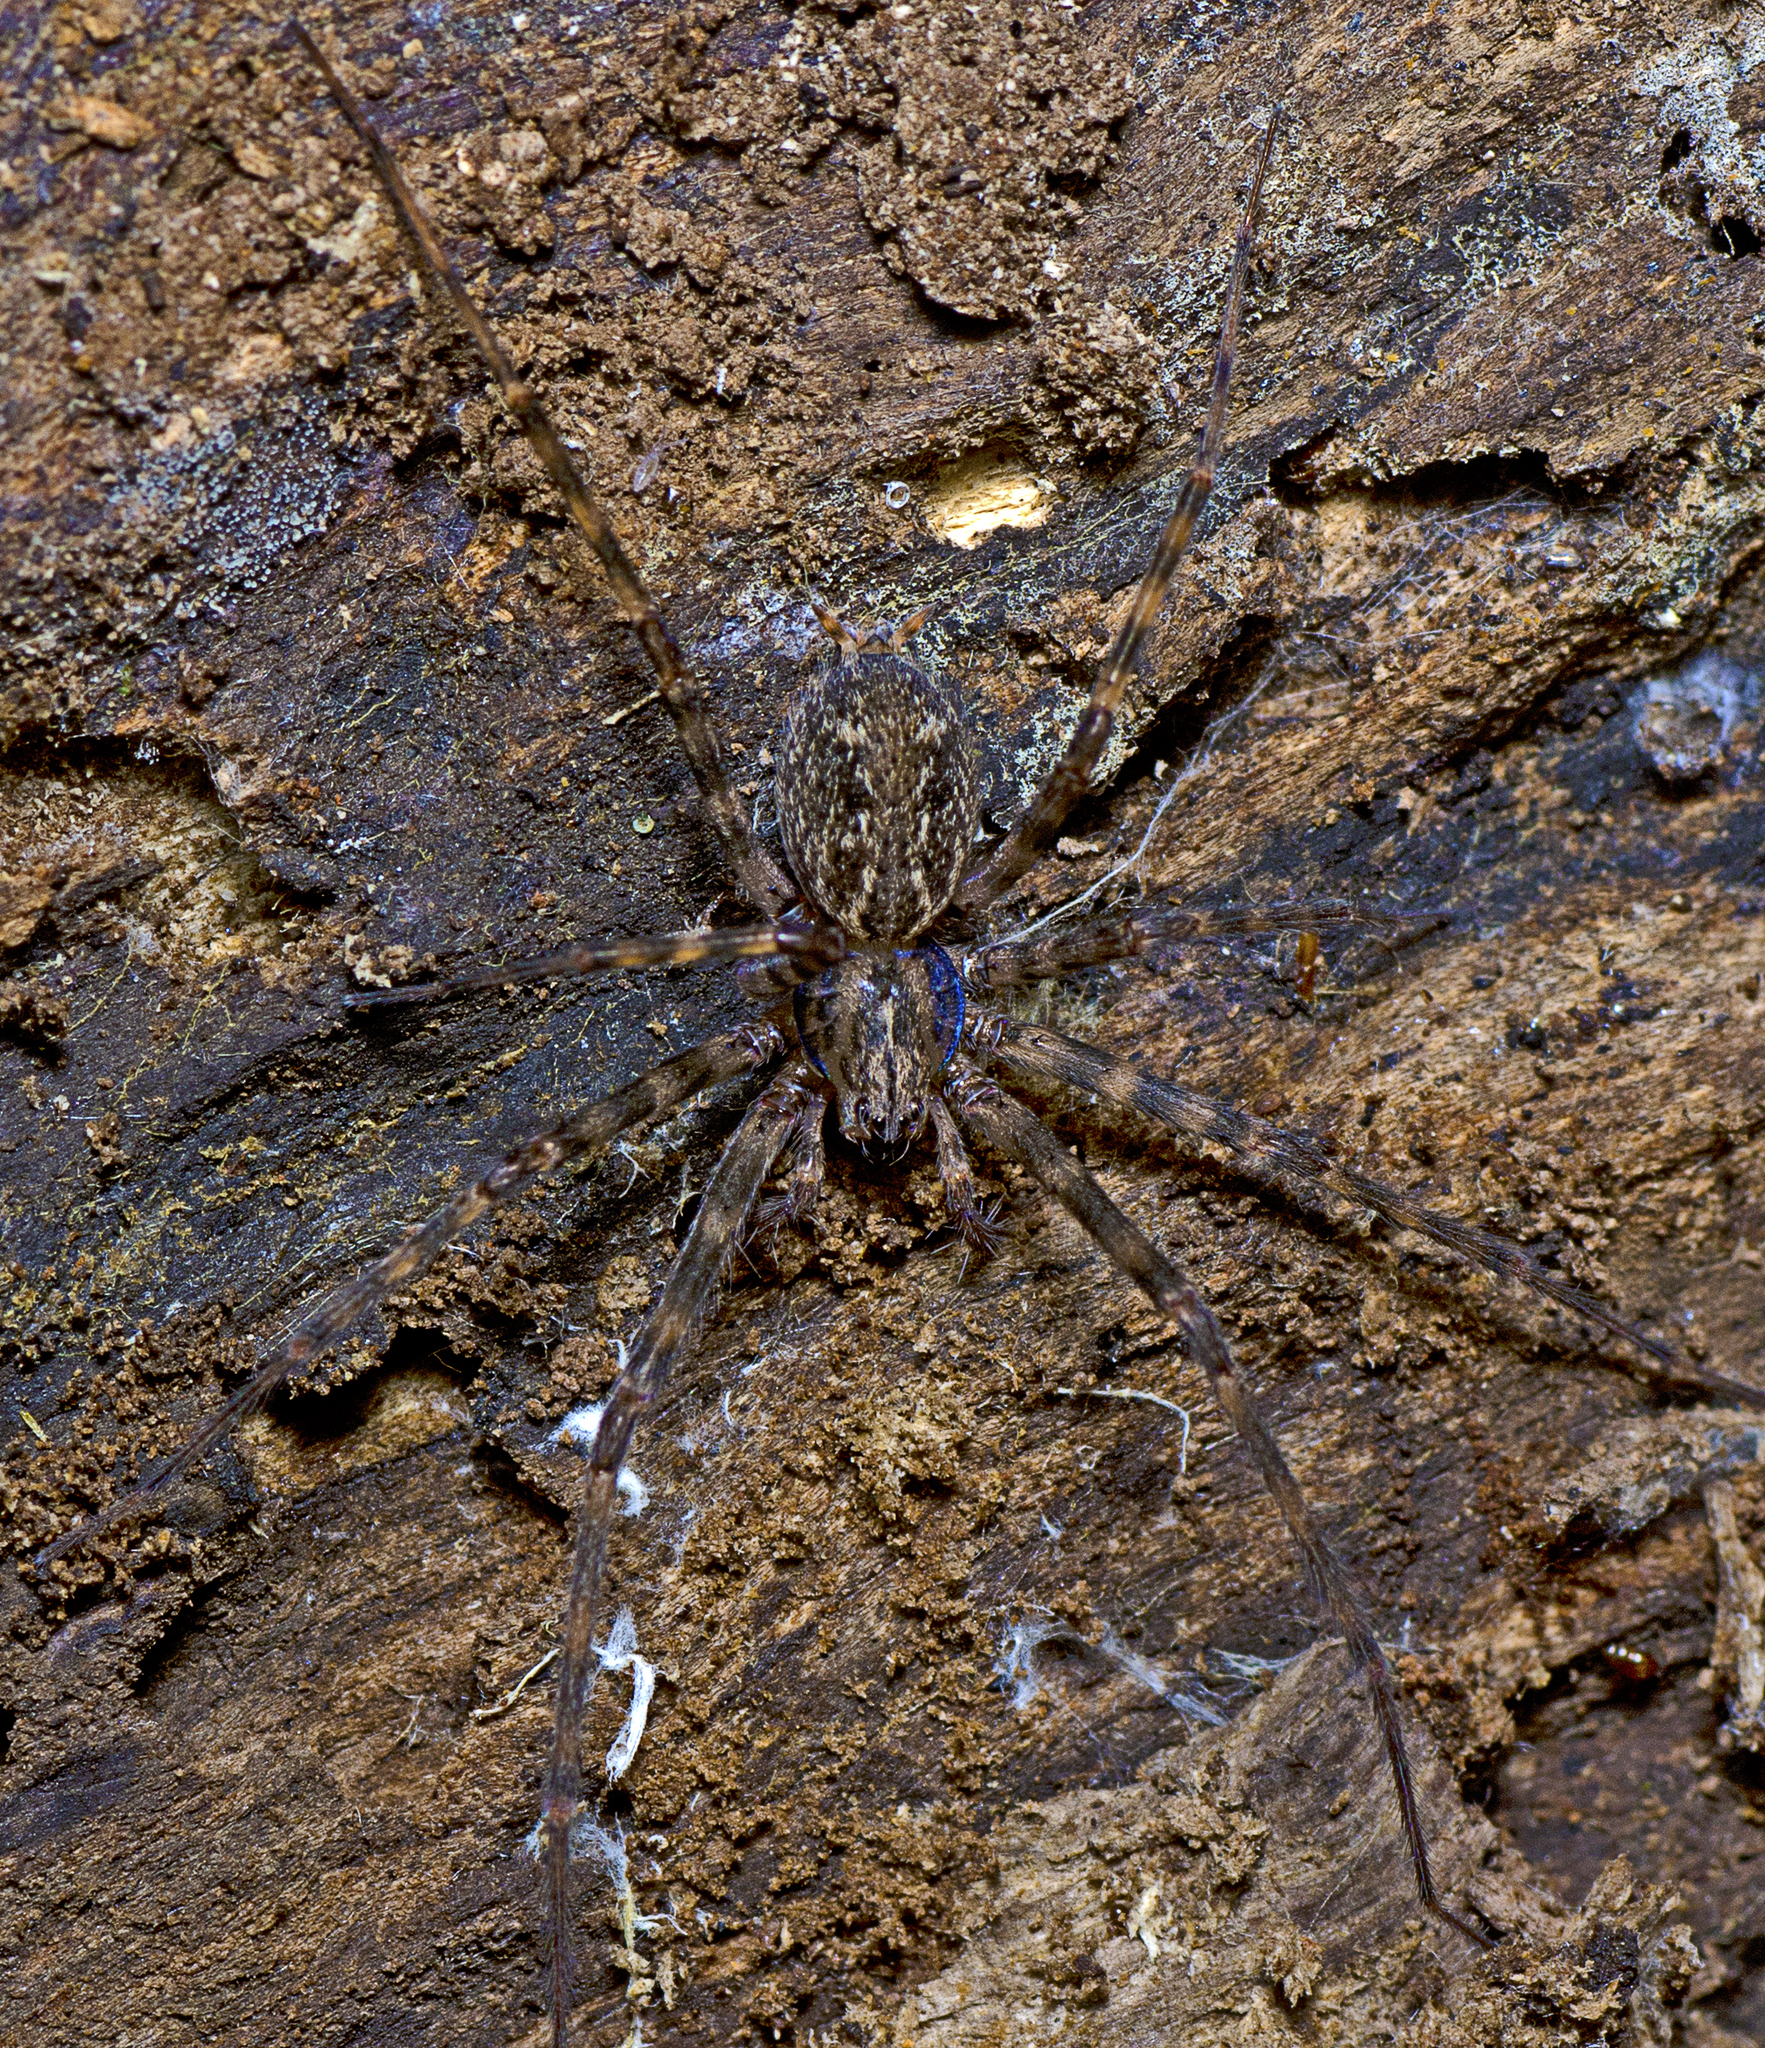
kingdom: Animalia
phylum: Arthropoda
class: Arachnida
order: Araneae
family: Stiphidiidae
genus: Stiphidion
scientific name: Stiphidion facetum
